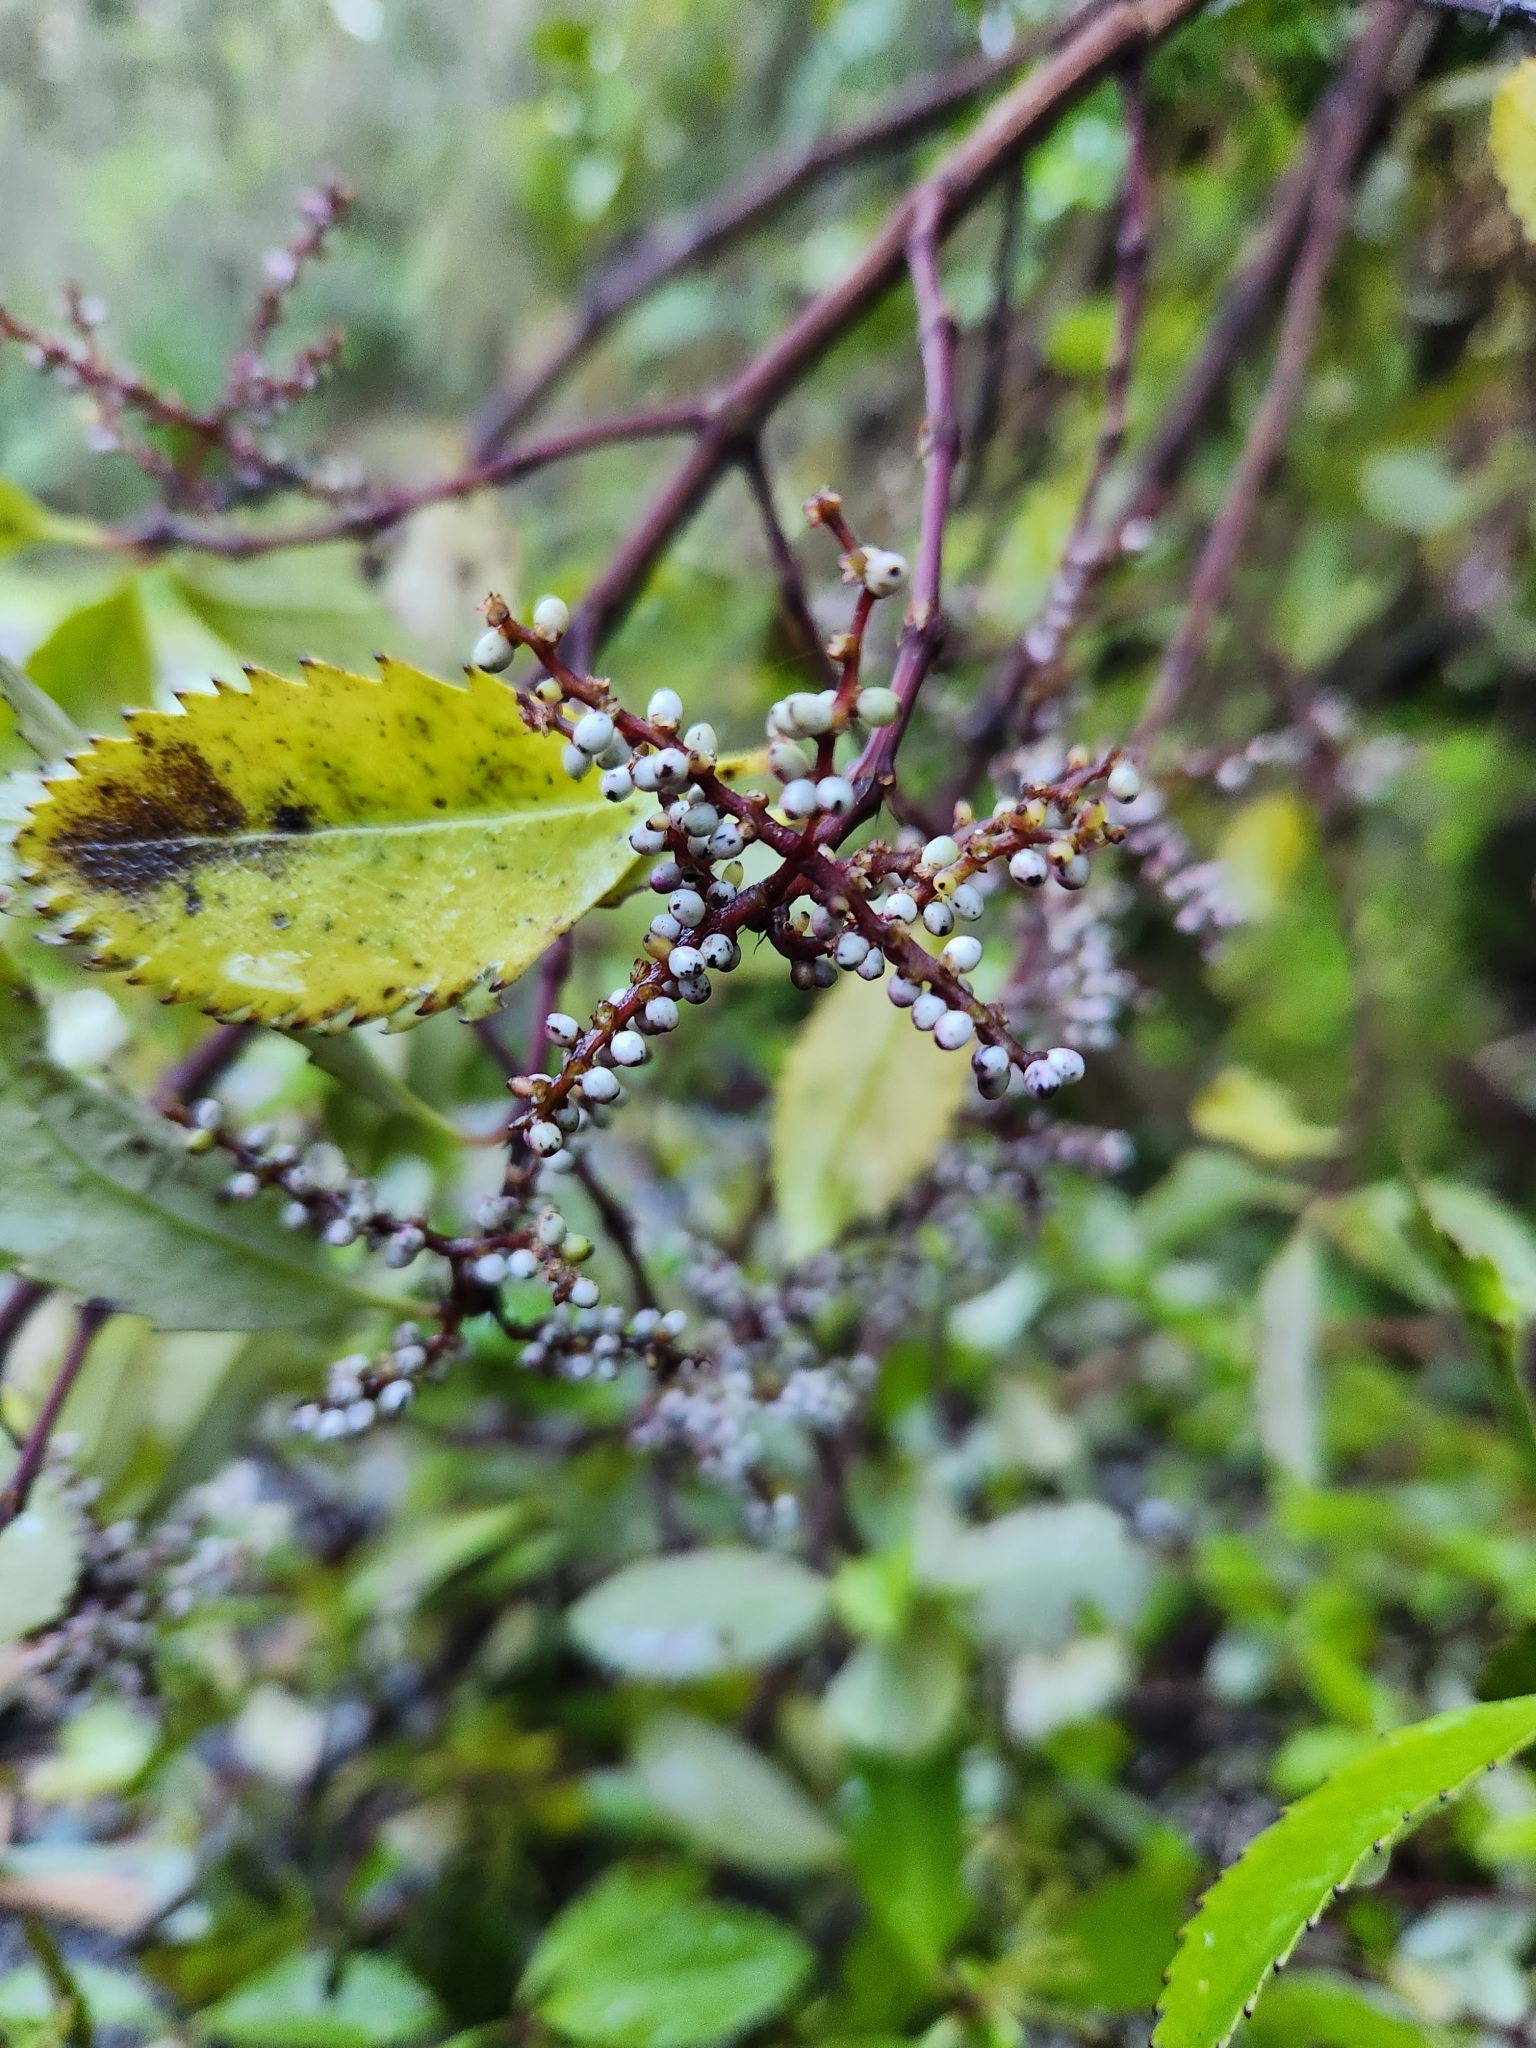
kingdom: Plantae
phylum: Tracheophyta
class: Magnoliopsida
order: Chloranthales
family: Chloranthaceae
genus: Ascarina
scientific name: Ascarina lucida
